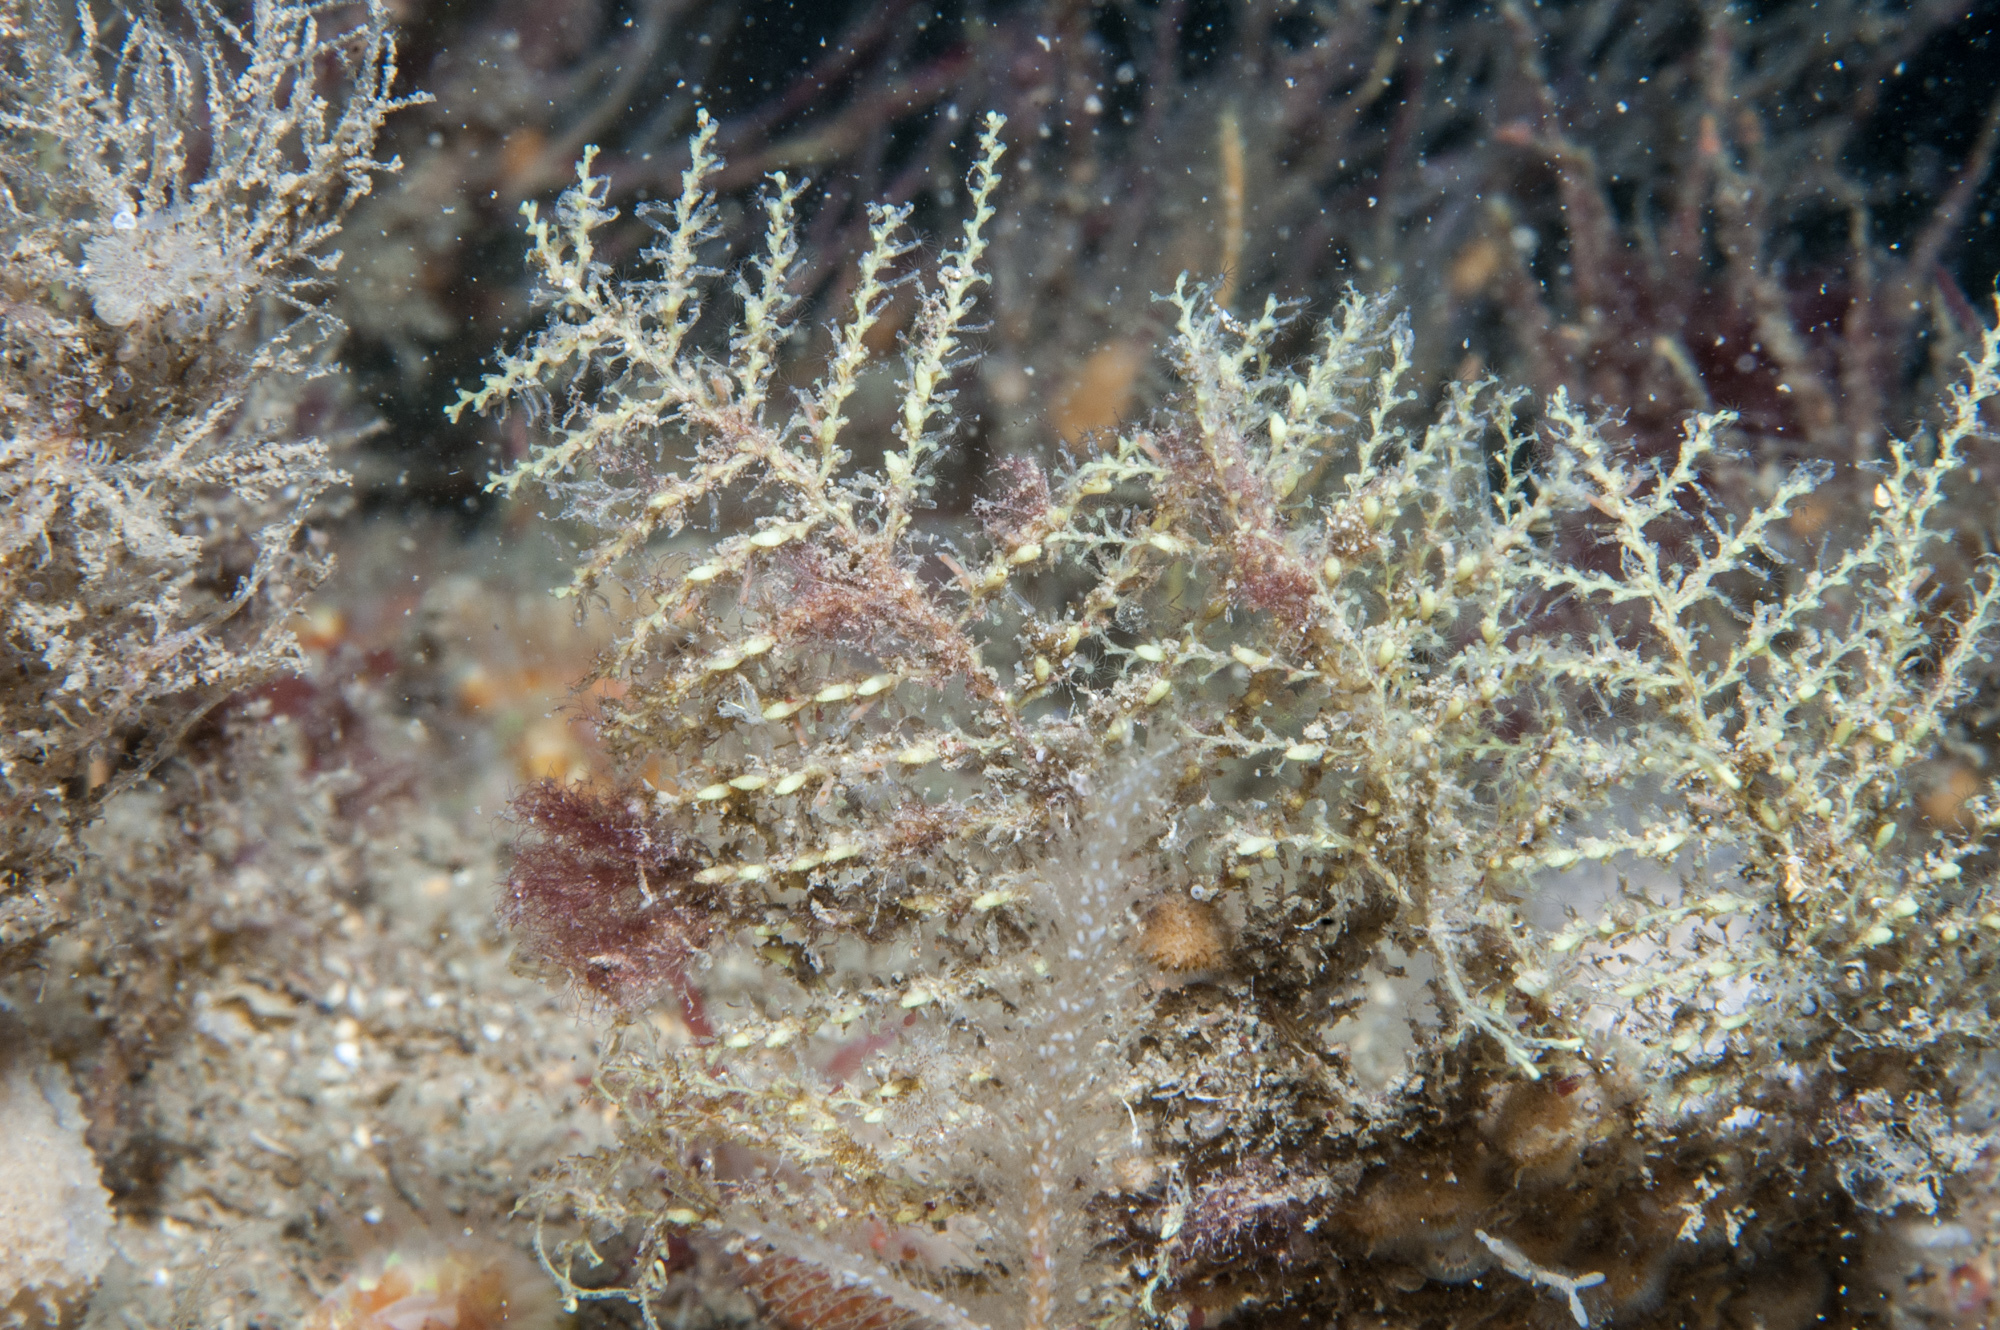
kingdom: Animalia
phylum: Cnidaria
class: Hydrozoa
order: Leptothecata
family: Sertularellidae
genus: Sertularella
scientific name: Sertularella gayi
